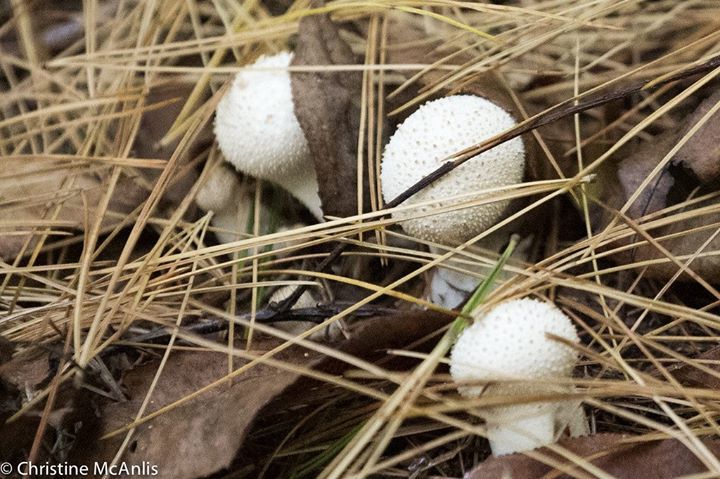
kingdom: Fungi
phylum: Basidiomycota
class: Agaricomycetes
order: Agaricales
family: Lycoperdaceae
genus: Lycoperdon
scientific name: Lycoperdon perlatum
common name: Common puffball
